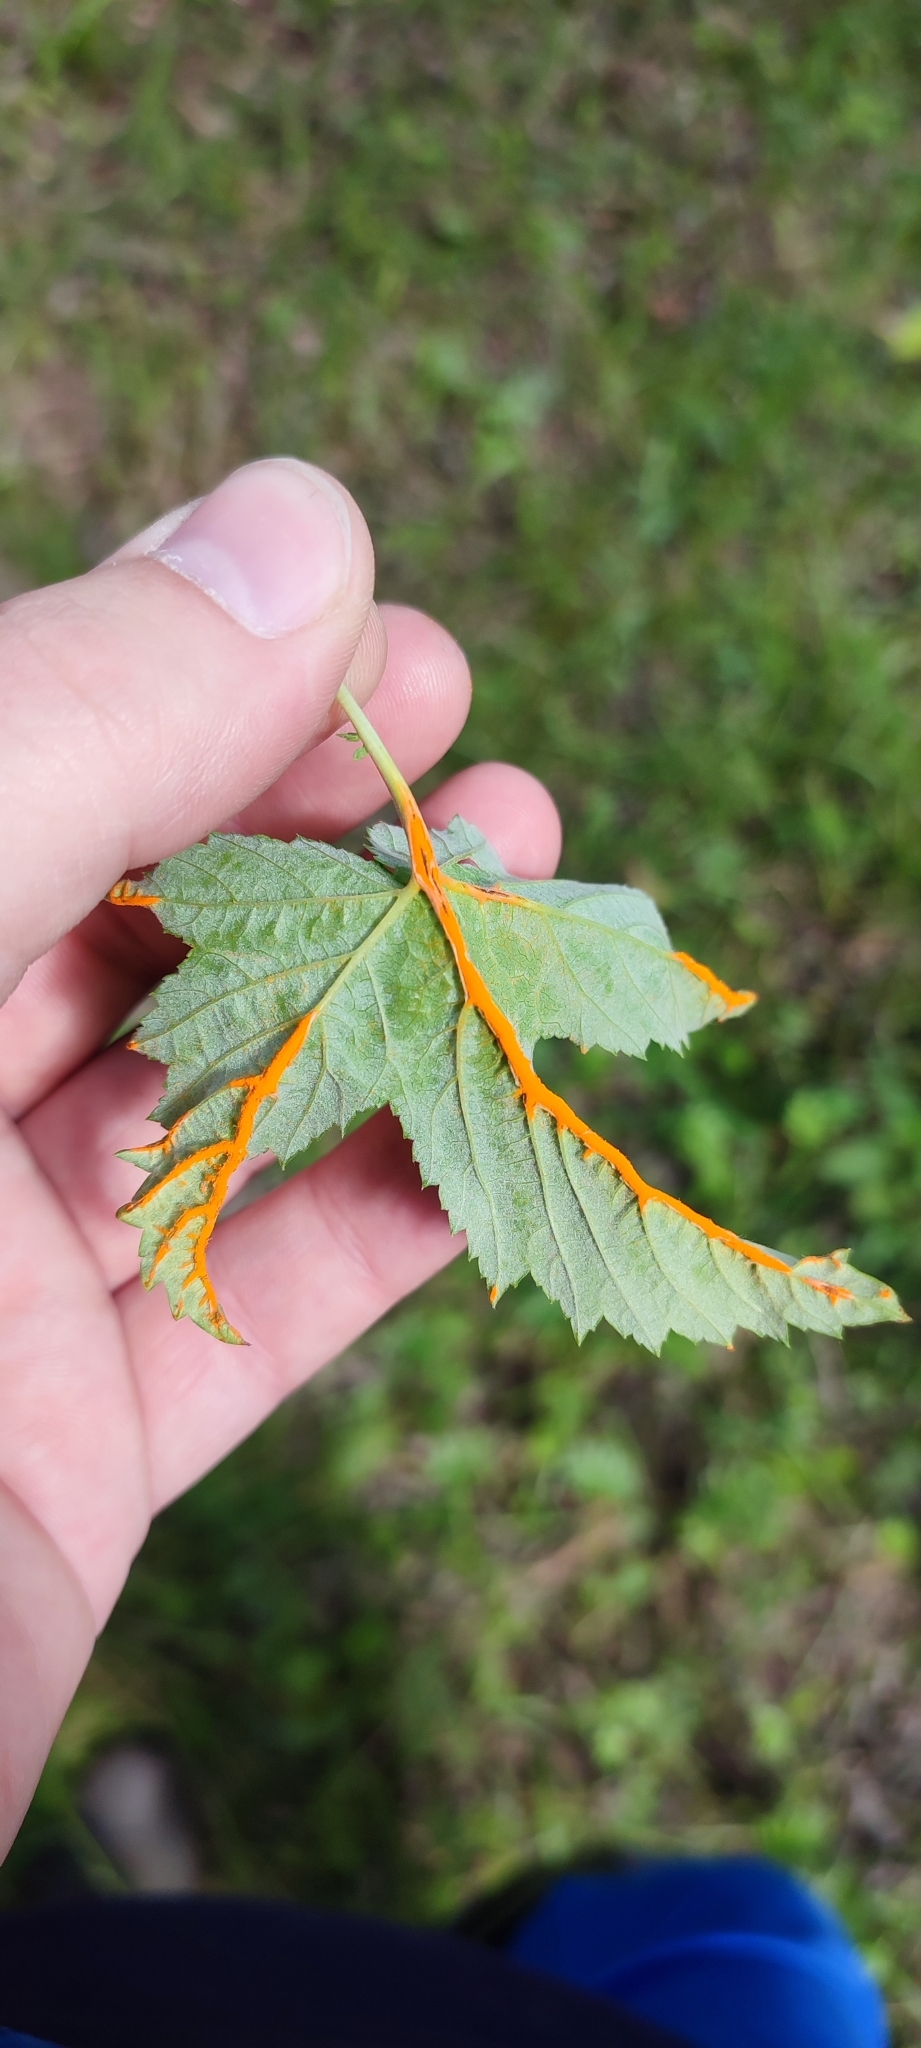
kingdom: Fungi
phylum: Basidiomycota
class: Pucciniomycetes
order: Pucciniales
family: Raveneliaceae
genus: Triphragmium
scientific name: Triphragmium ulmariae
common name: Meadowsweet rust
